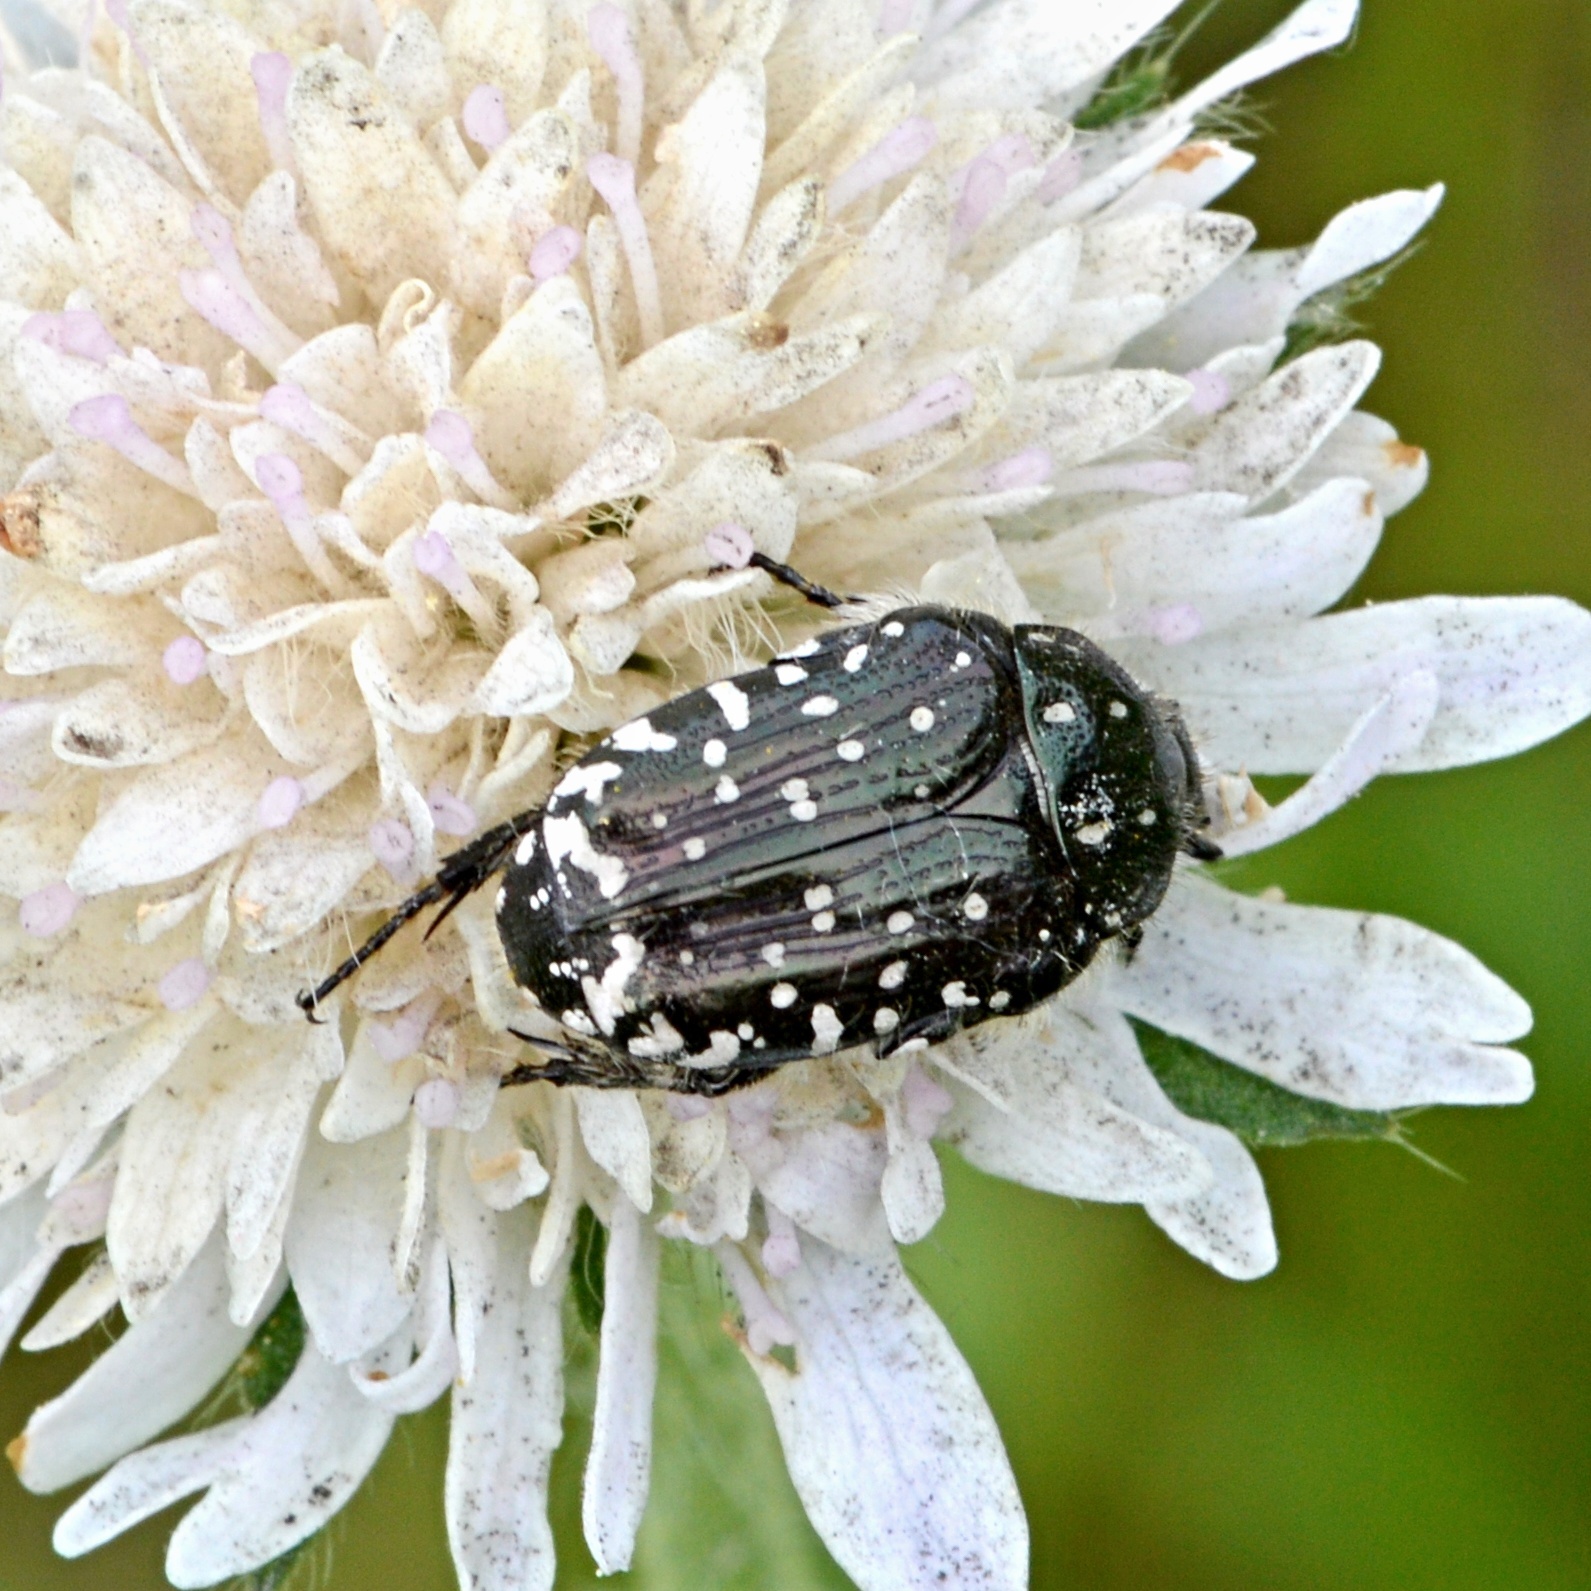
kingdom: Animalia
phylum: Arthropoda
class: Insecta
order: Coleoptera
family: Scarabaeidae
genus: Oxythyrea
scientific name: Oxythyrea funesta
